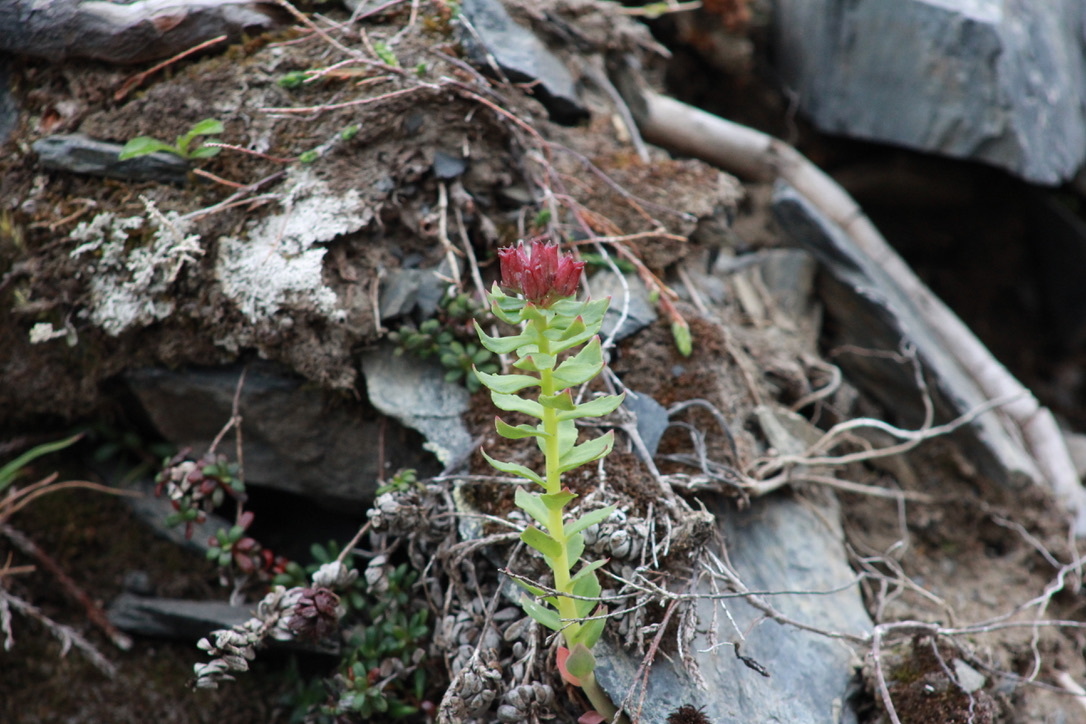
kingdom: Plantae
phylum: Tracheophyta
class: Magnoliopsida
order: Saxifragales
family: Crassulaceae
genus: Rhodiola
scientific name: Rhodiola integrifolia
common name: Western roseroot
